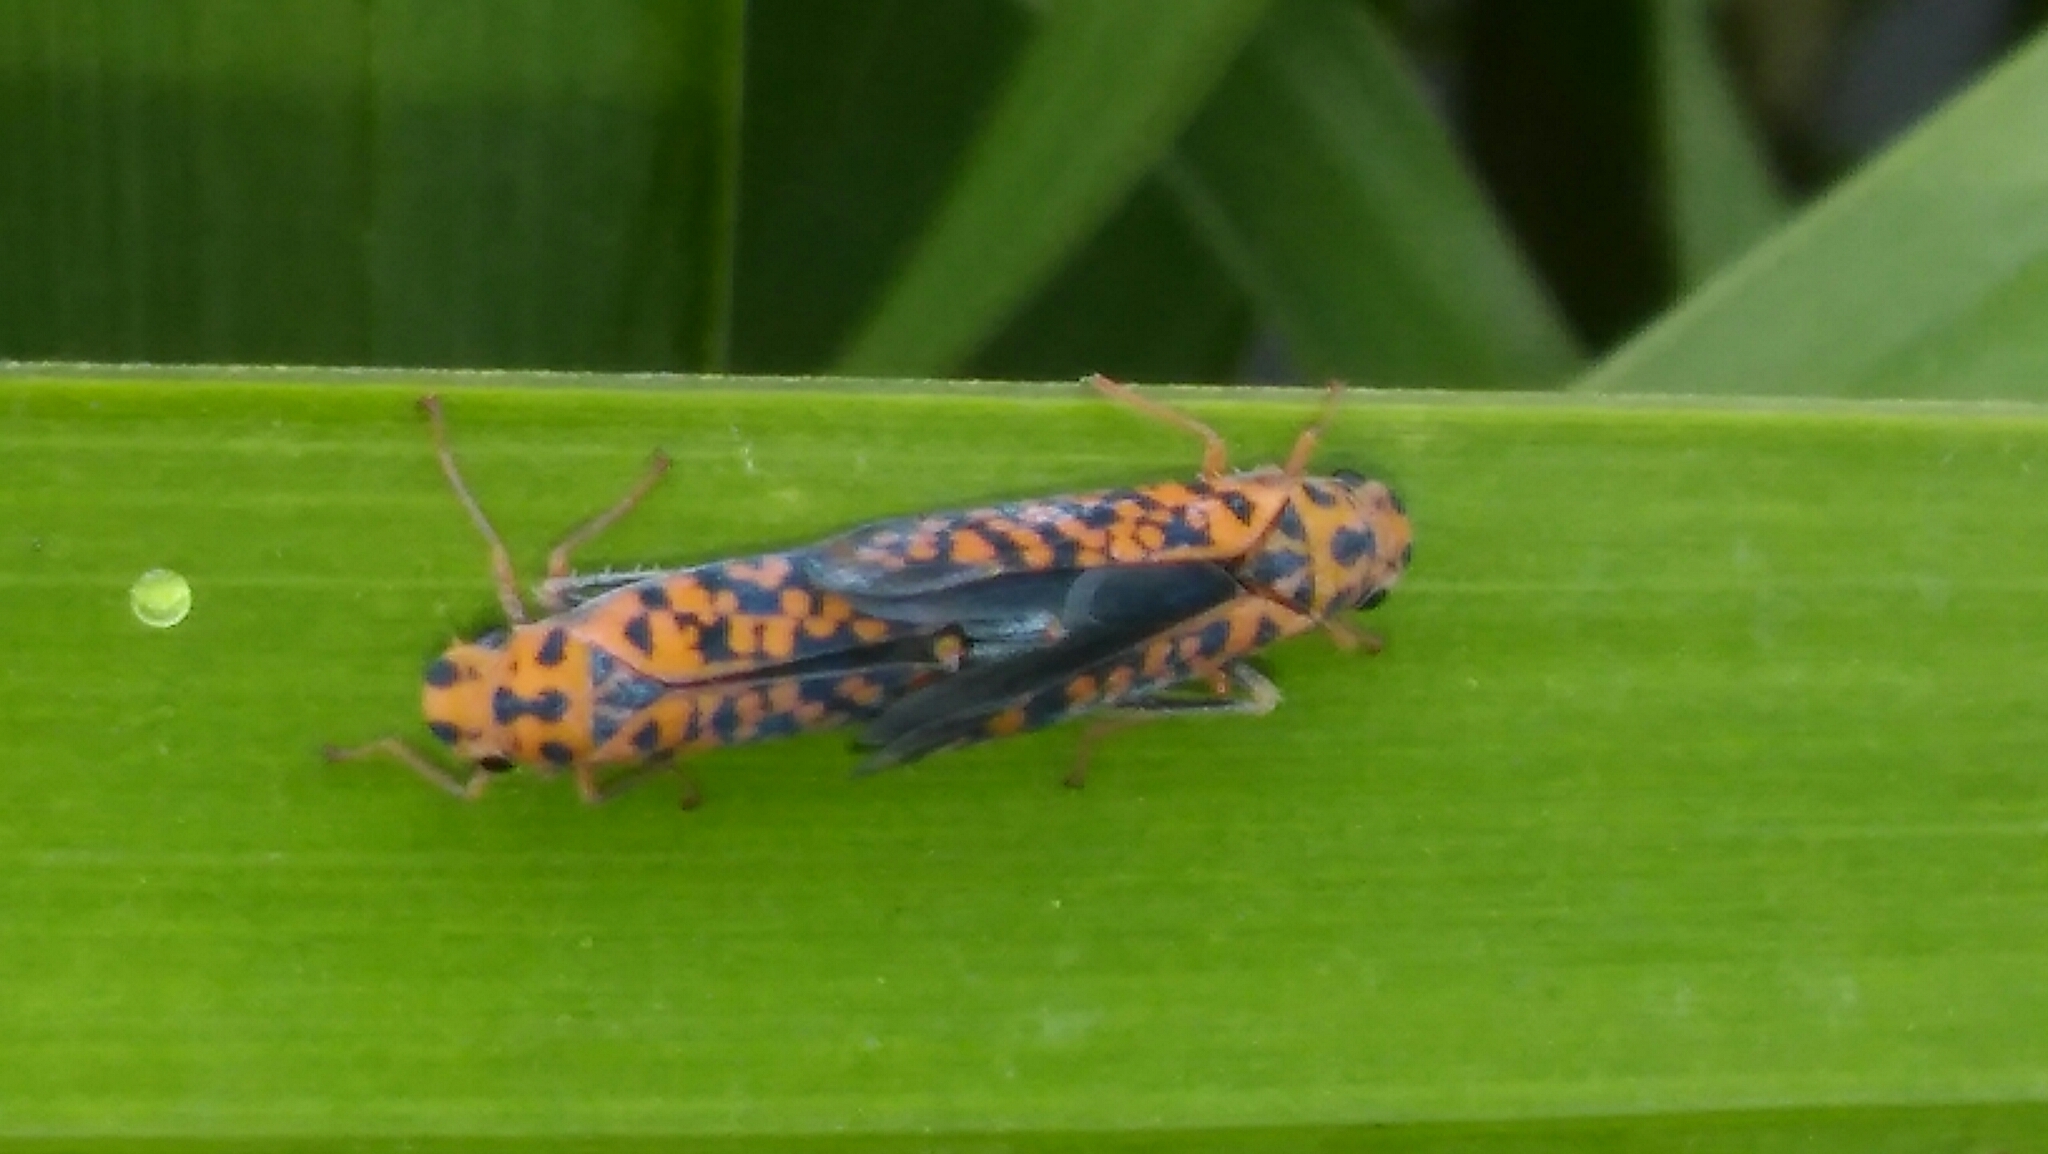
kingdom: Animalia
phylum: Arthropoda
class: Insecta
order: Hemiptera
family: Cicadellidae
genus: Pawiloma
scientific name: Pawiloma victima
